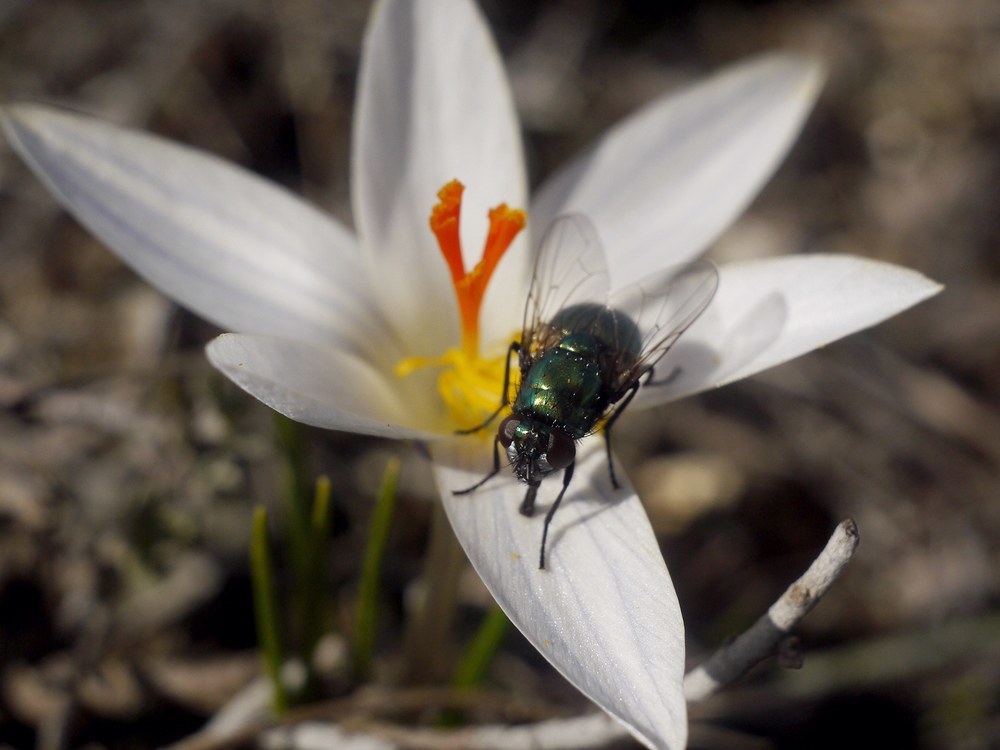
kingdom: Animalia
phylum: Arthropoda
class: Insecta
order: Diptera
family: Muscidae
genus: Neomyia
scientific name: Neomyia cornicina
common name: House fly
